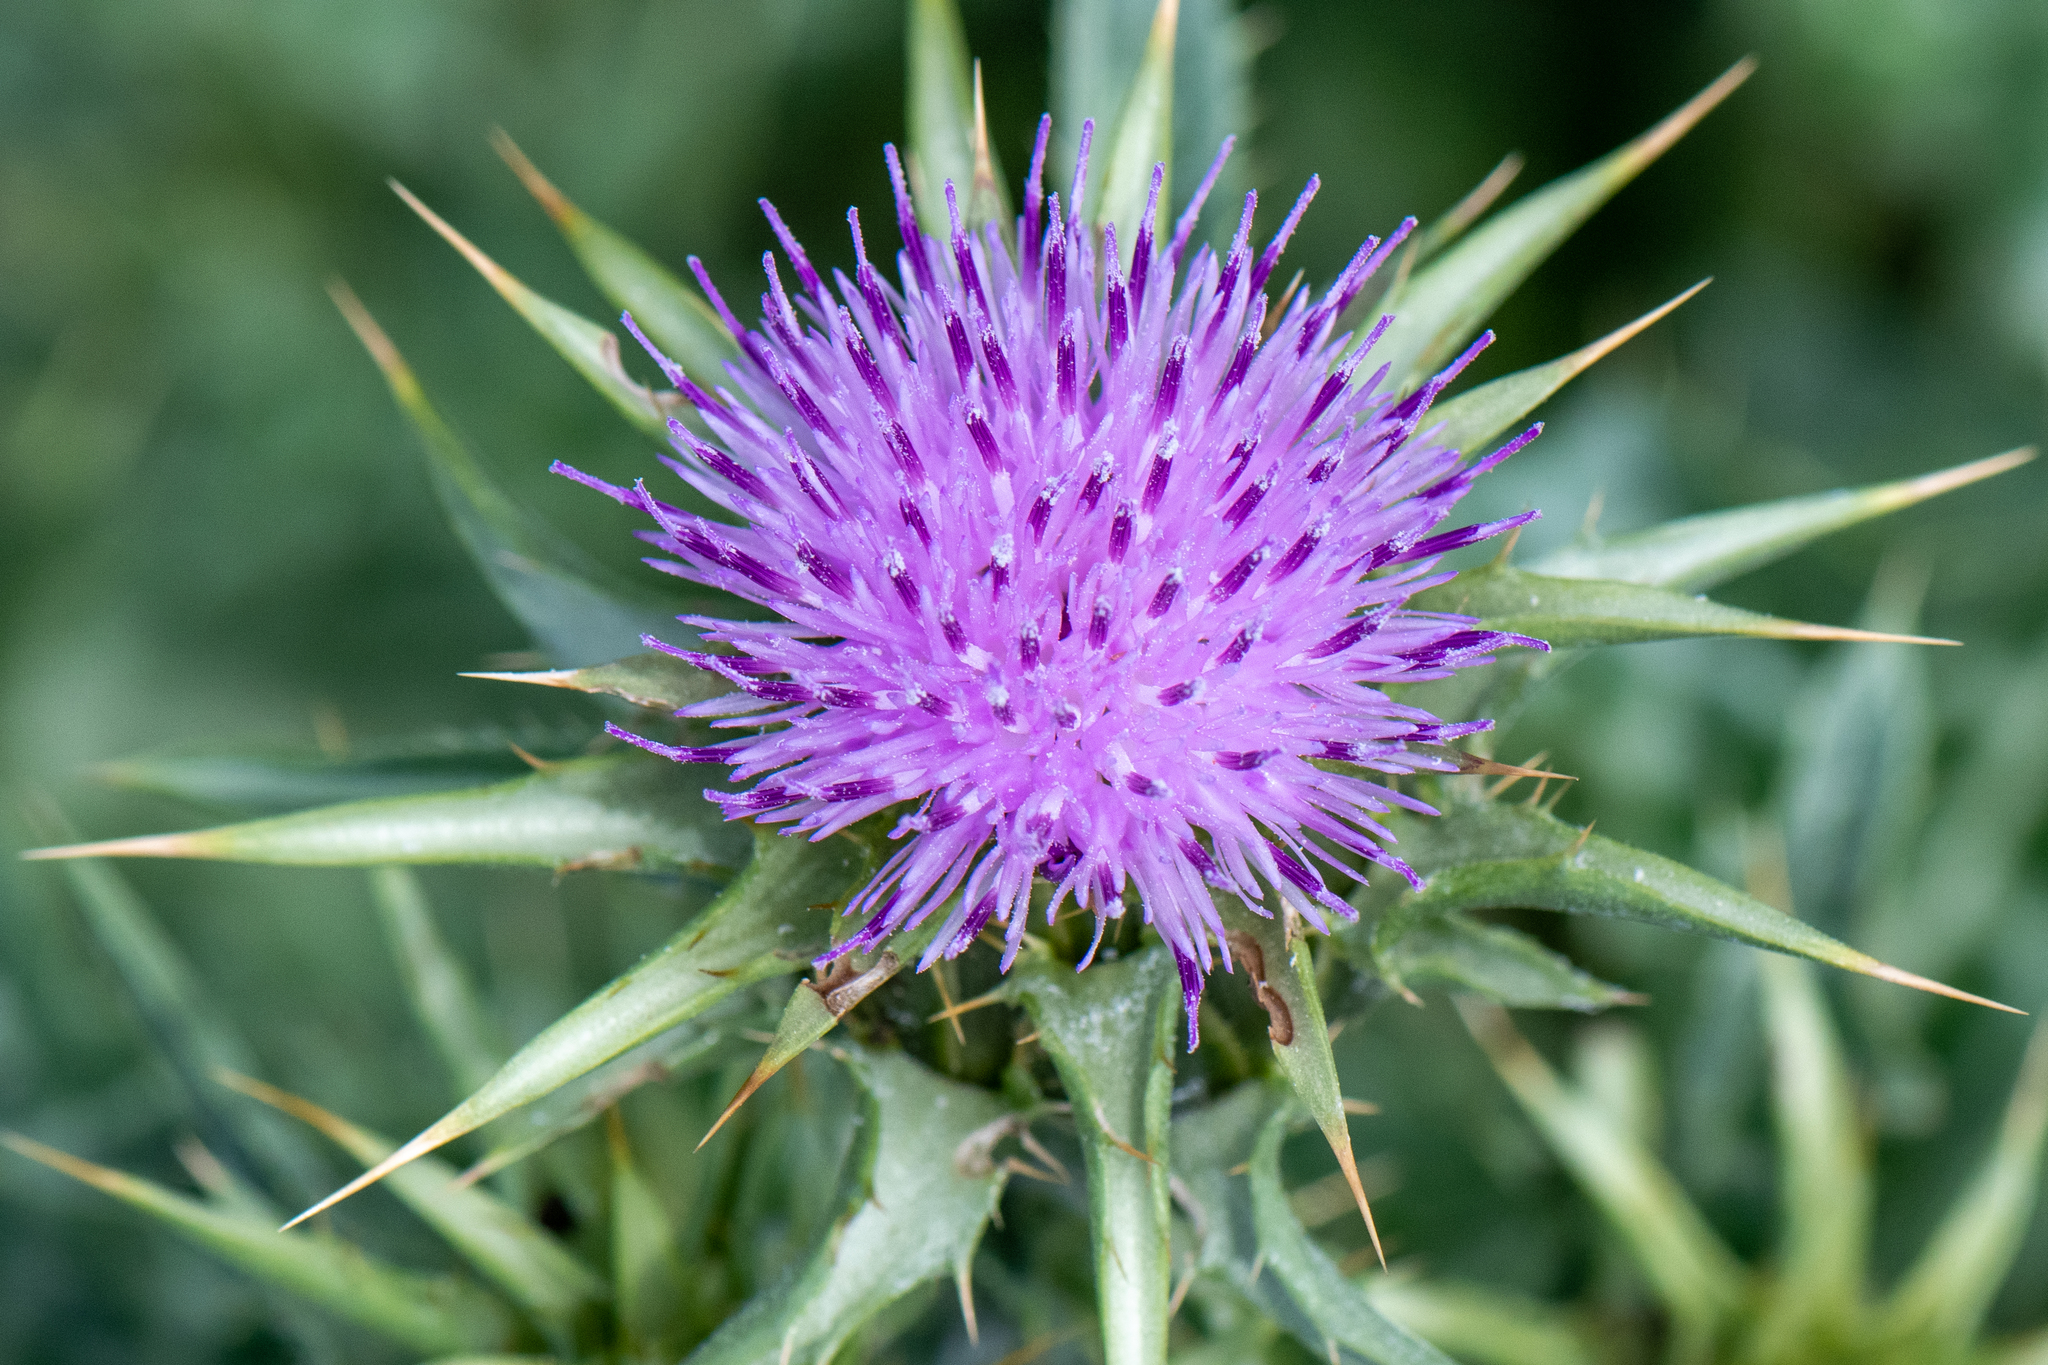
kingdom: Plantae
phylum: Tracheophyta
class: Magnoliopsida
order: Asterales
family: Asteraceae
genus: Silybum
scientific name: Silybum marianum
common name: Milk thistle
